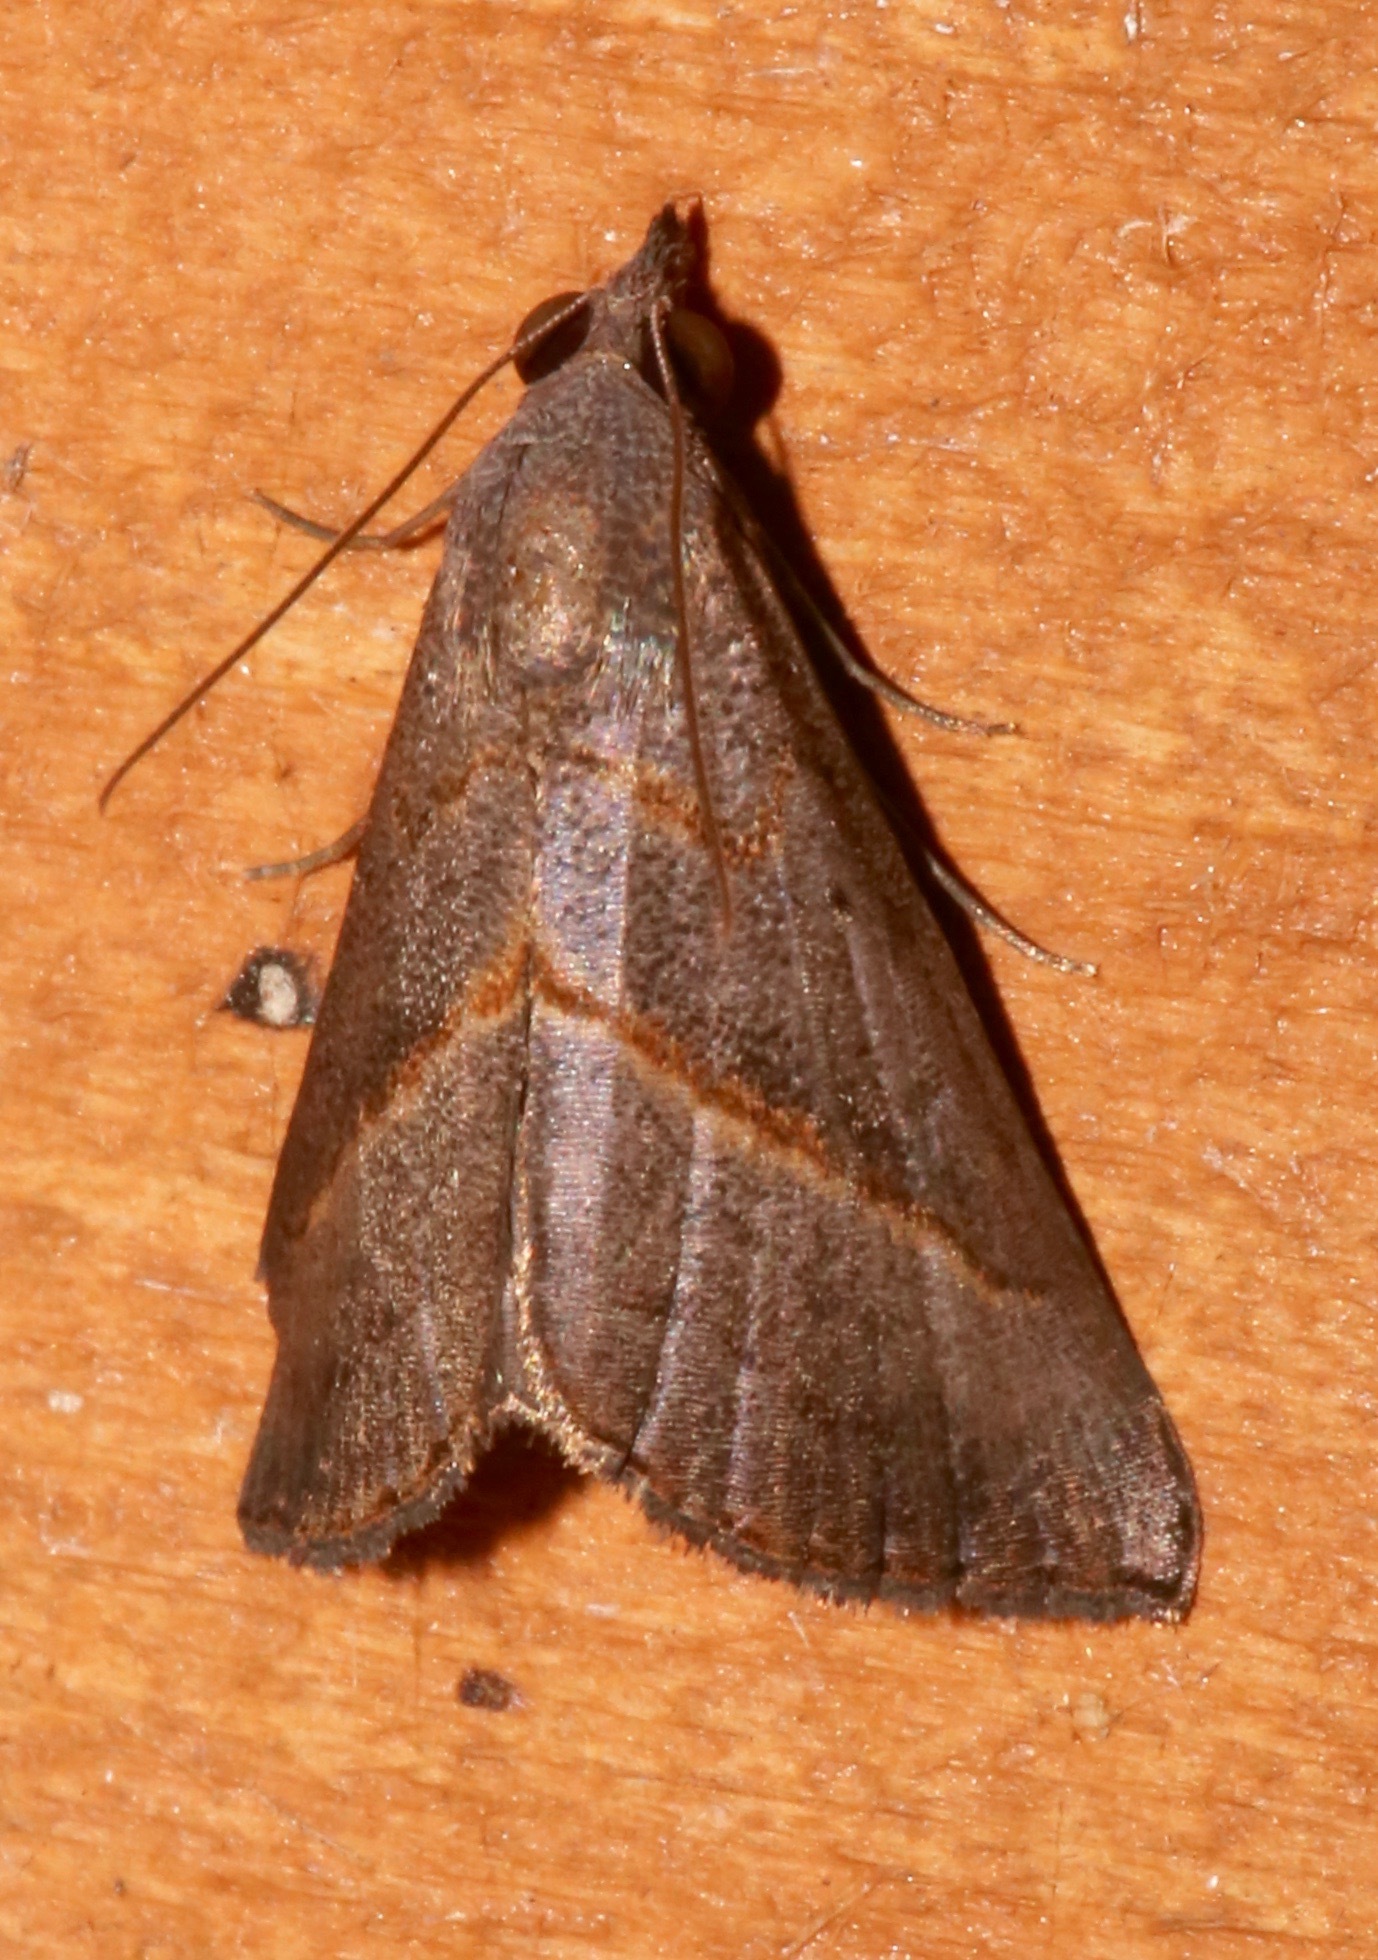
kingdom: Animalia
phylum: Arthropoda
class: Insecta
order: Lepidoptera
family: Erebidae
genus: Hypena
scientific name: Hypena degesalis
